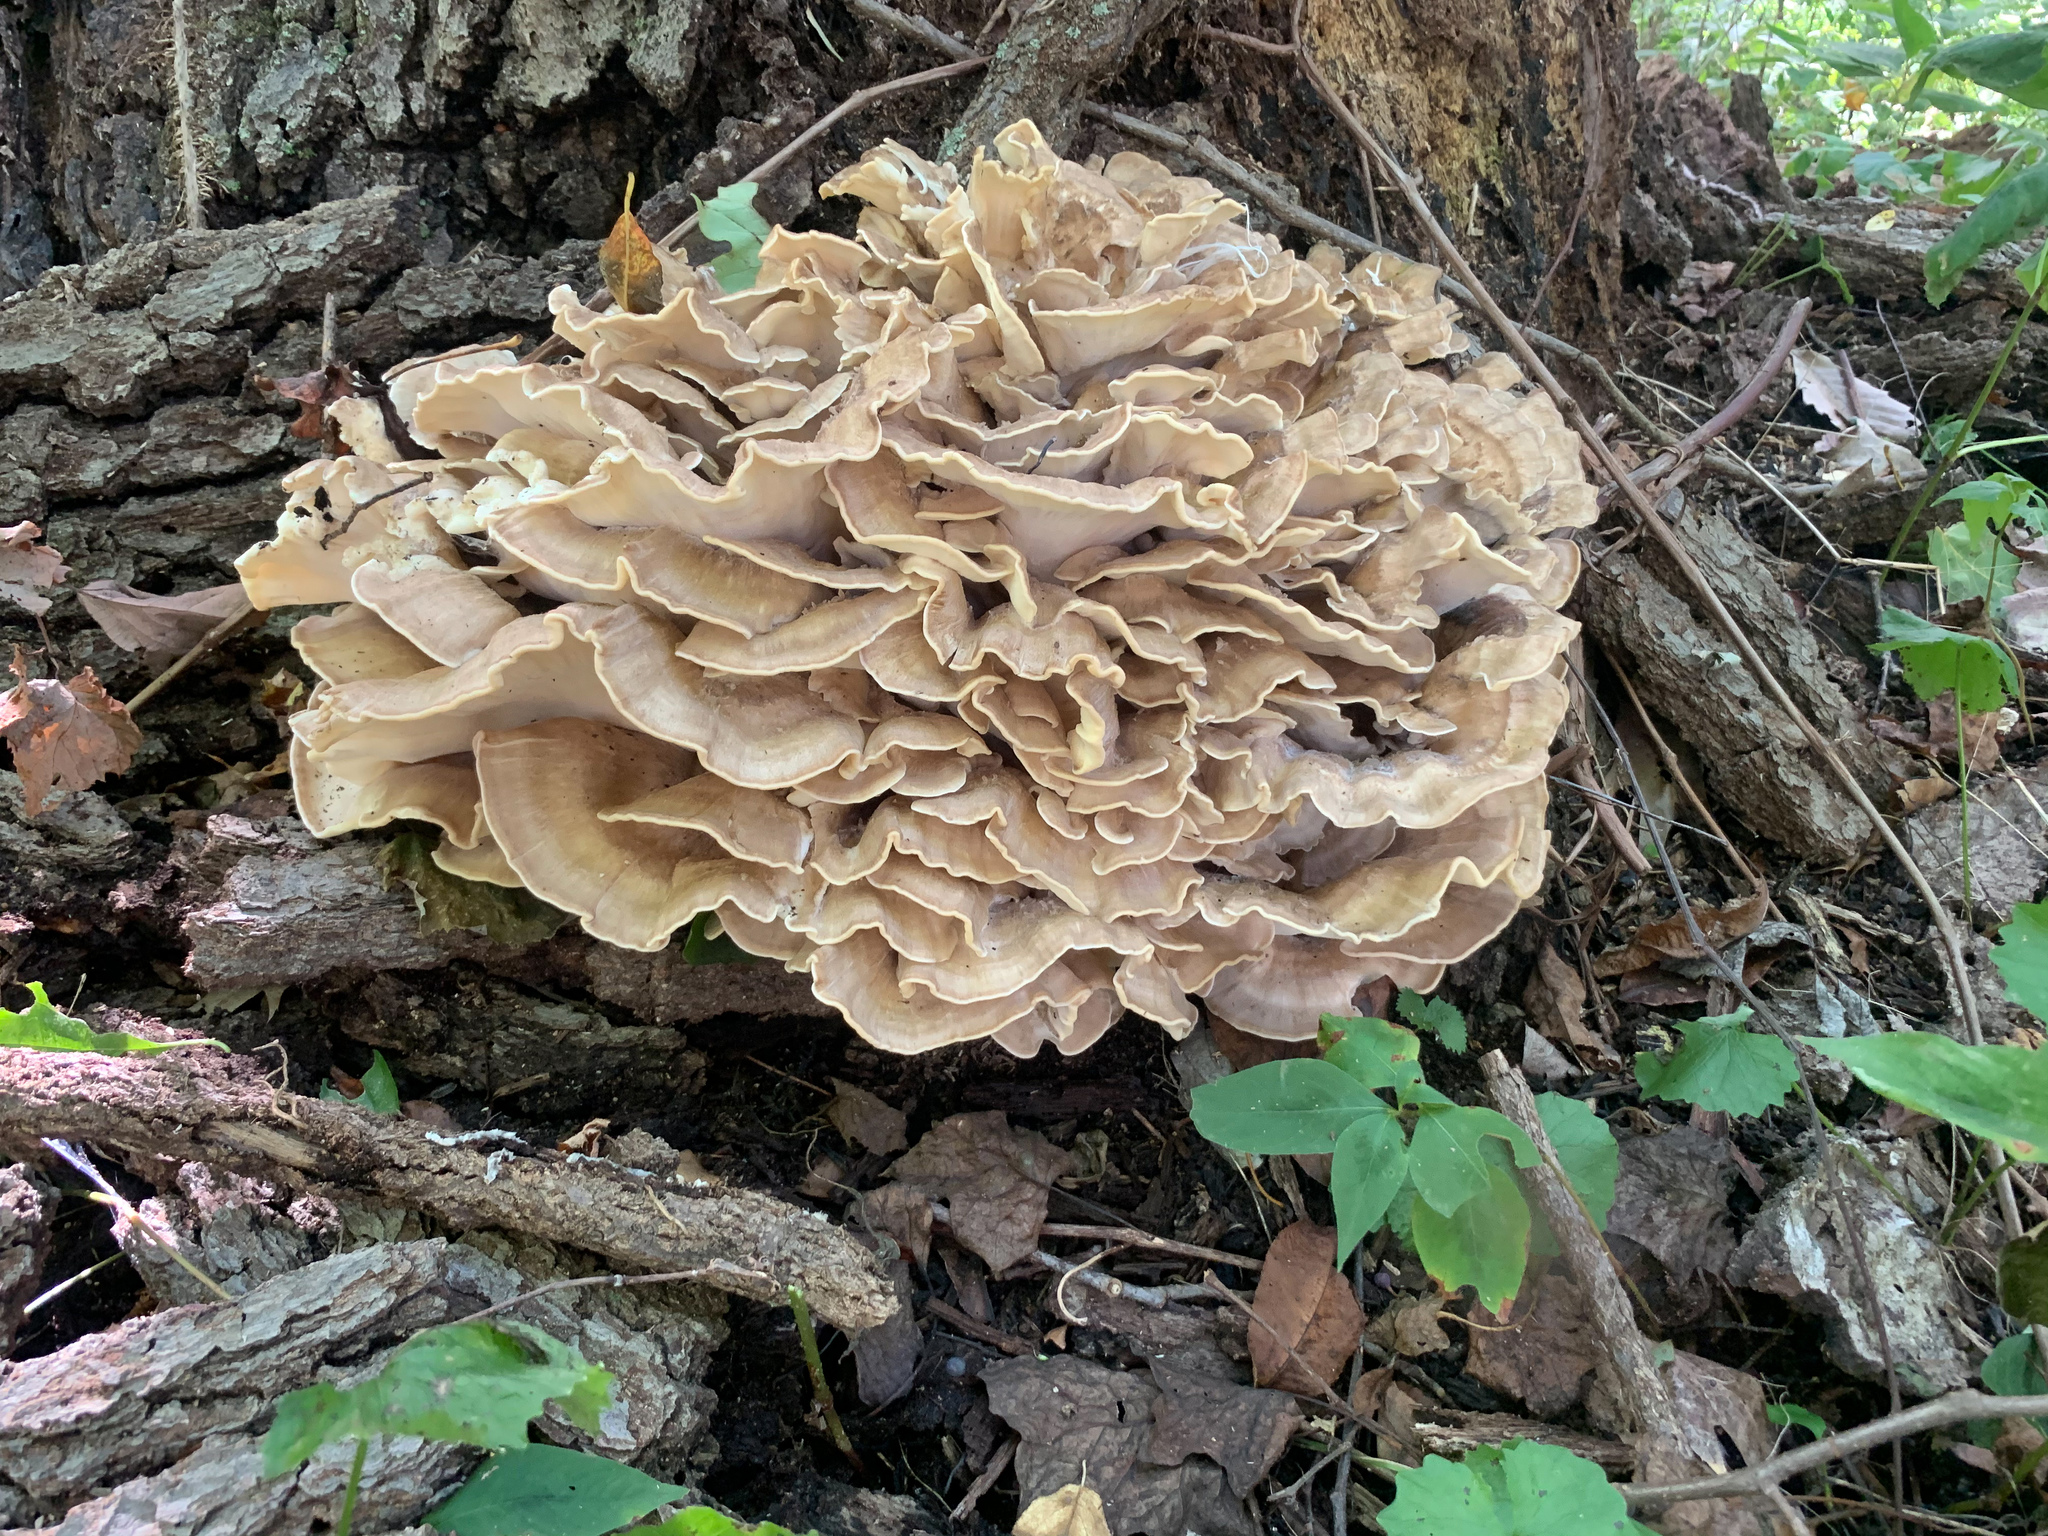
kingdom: Fungi
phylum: Basidiomycota
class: Agaricomycetes
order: Polyporales
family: Meripilaceae
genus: Meripilus
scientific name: Meripilus sumstinei
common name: Black-staining polypore
